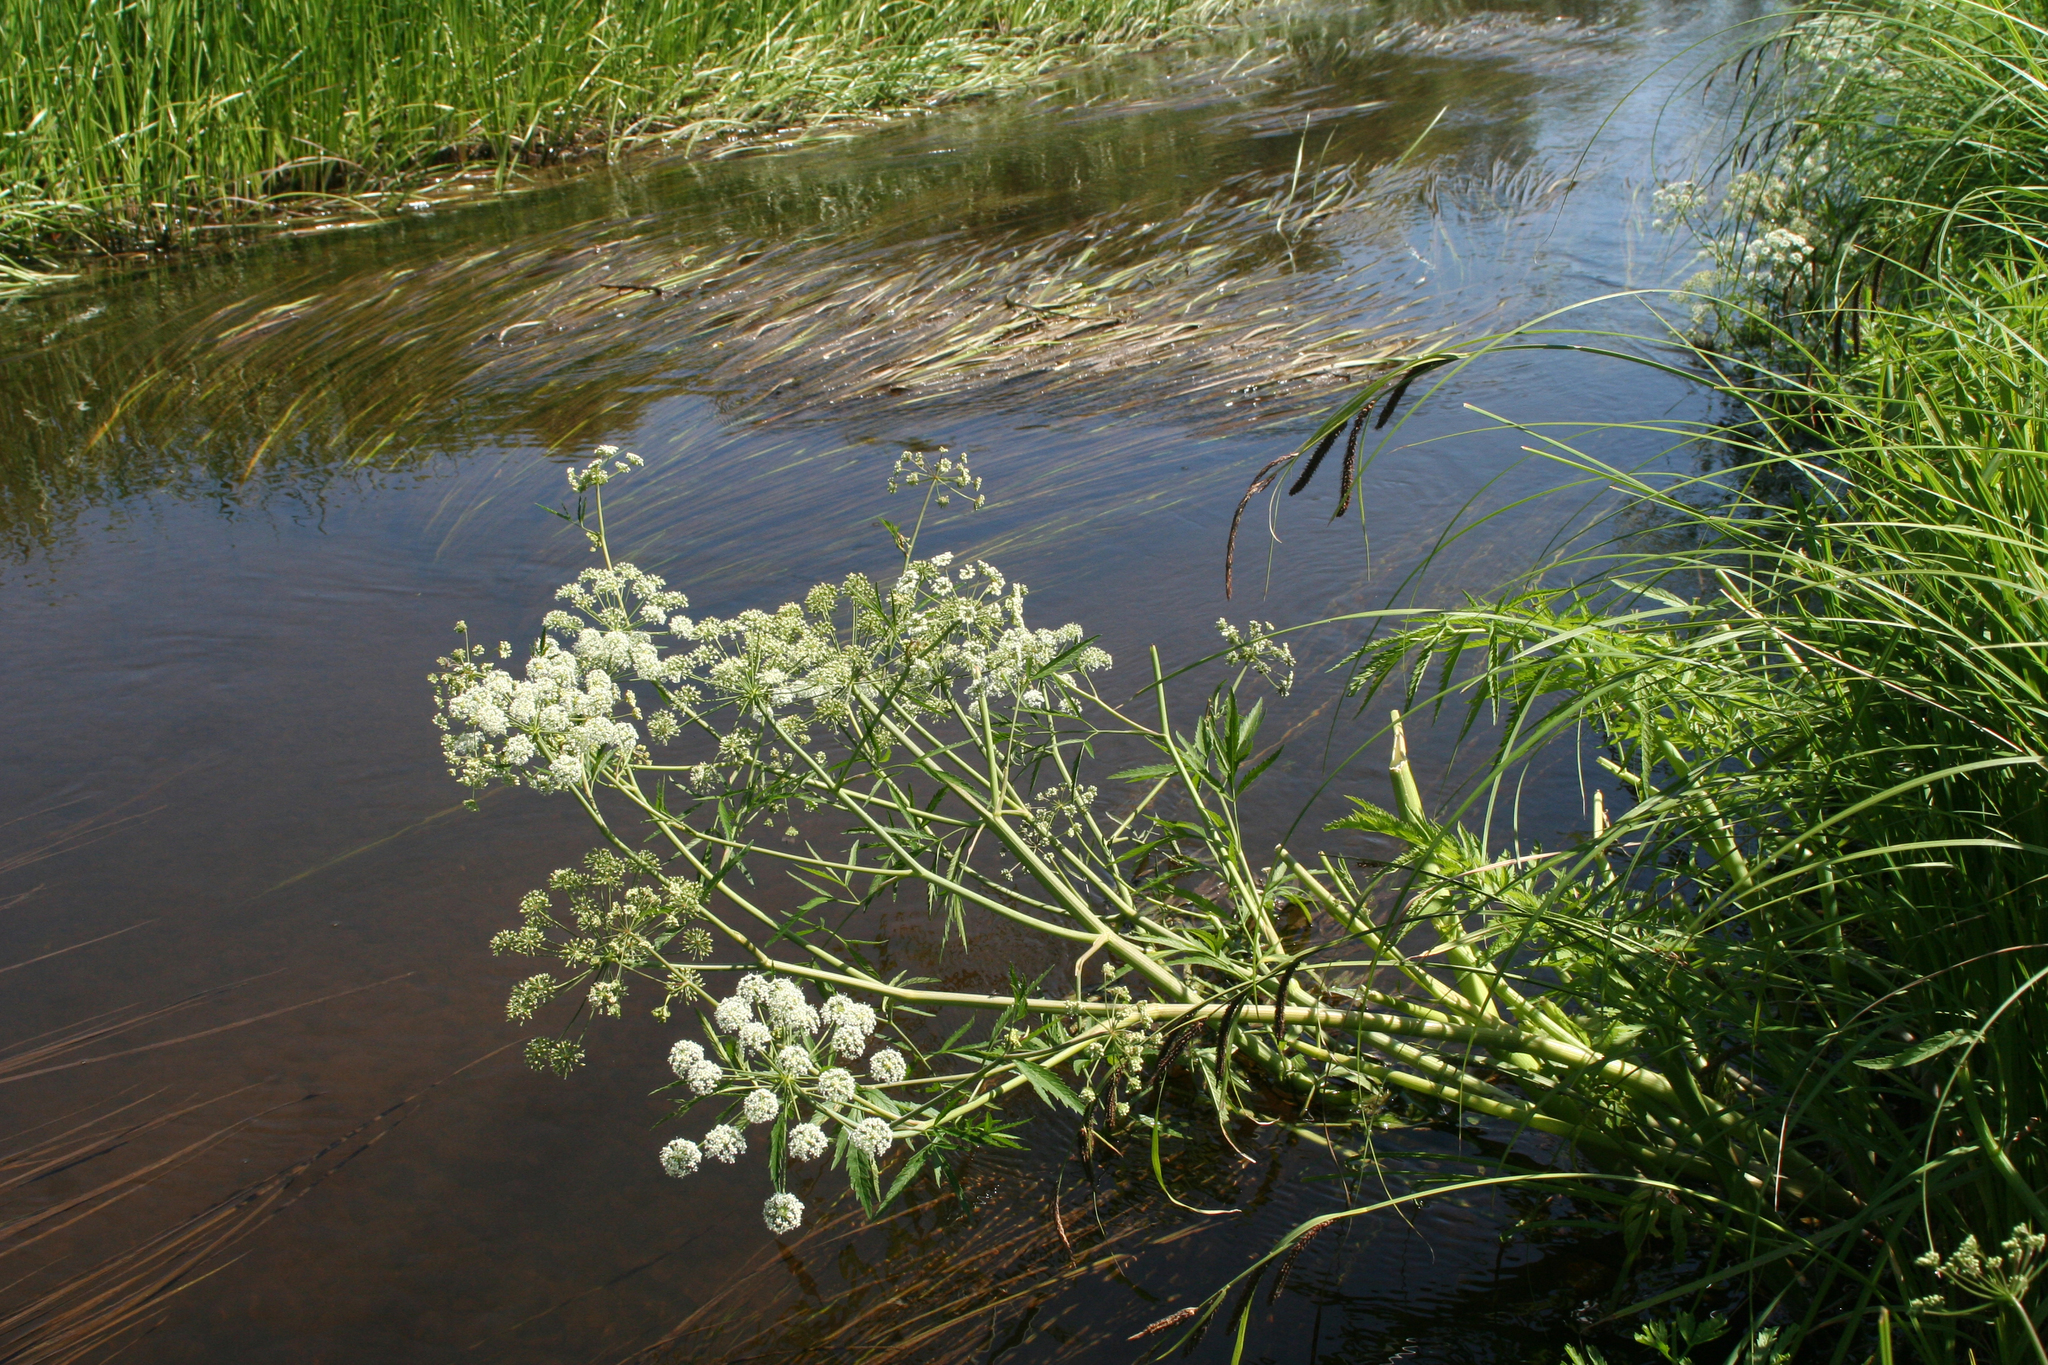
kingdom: Plantae
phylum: Tracheophyta
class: Magnoliopsida
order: Apiales
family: Apiaceae
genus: Cicuta
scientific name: Cicuta virosa
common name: Cowbane
